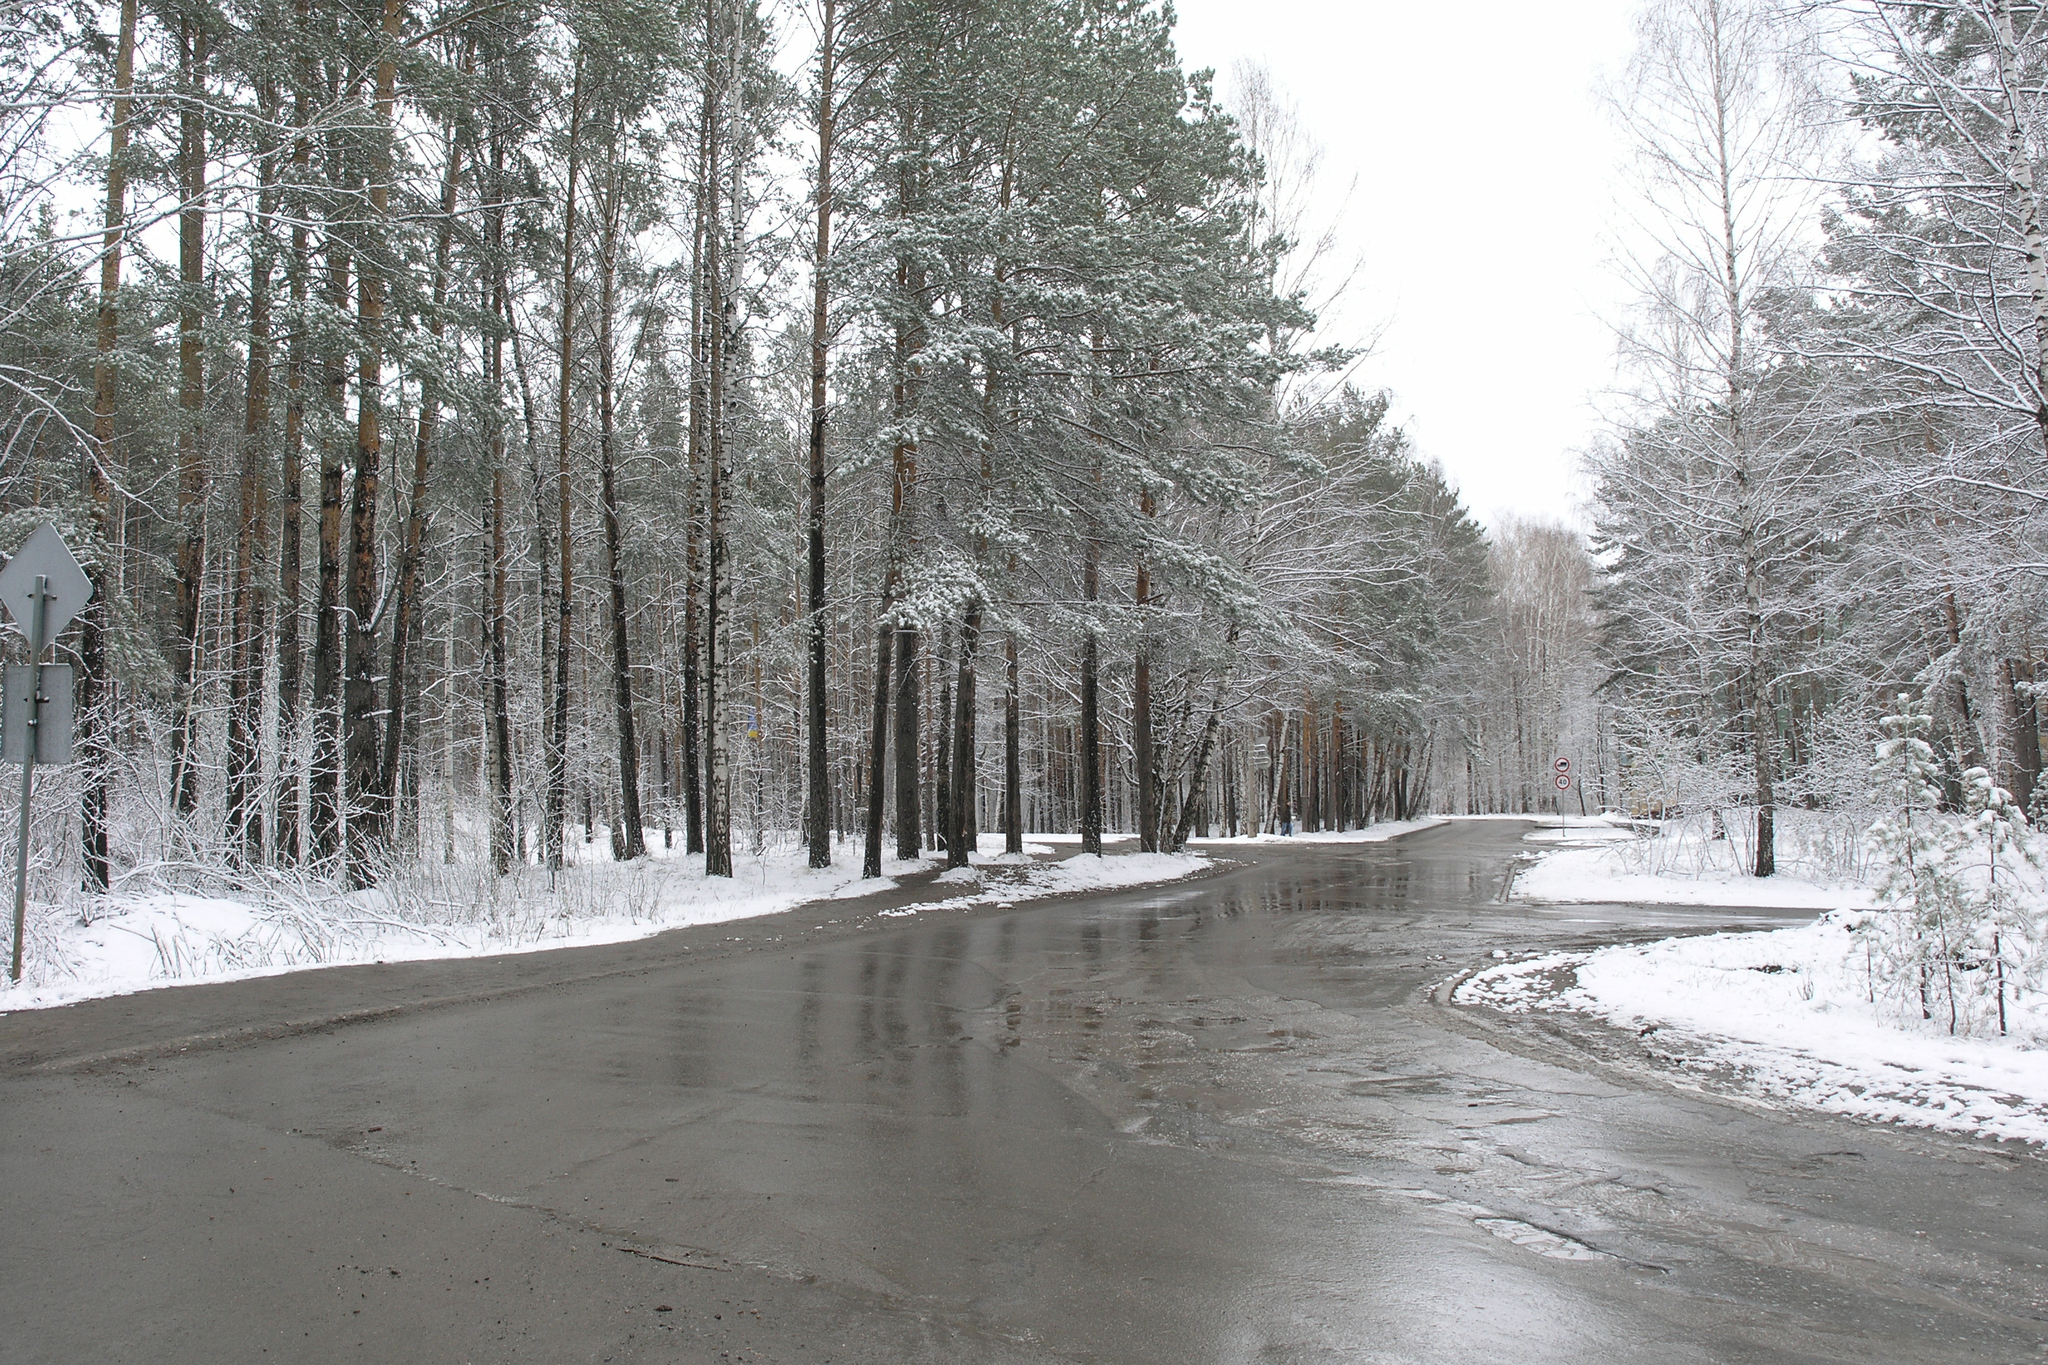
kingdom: Plantae
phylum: Tracheophyta
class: Pinopsida
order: Pinales
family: Pinaceae
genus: Pinus
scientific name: Pinus sylvestris
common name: Scots pine
